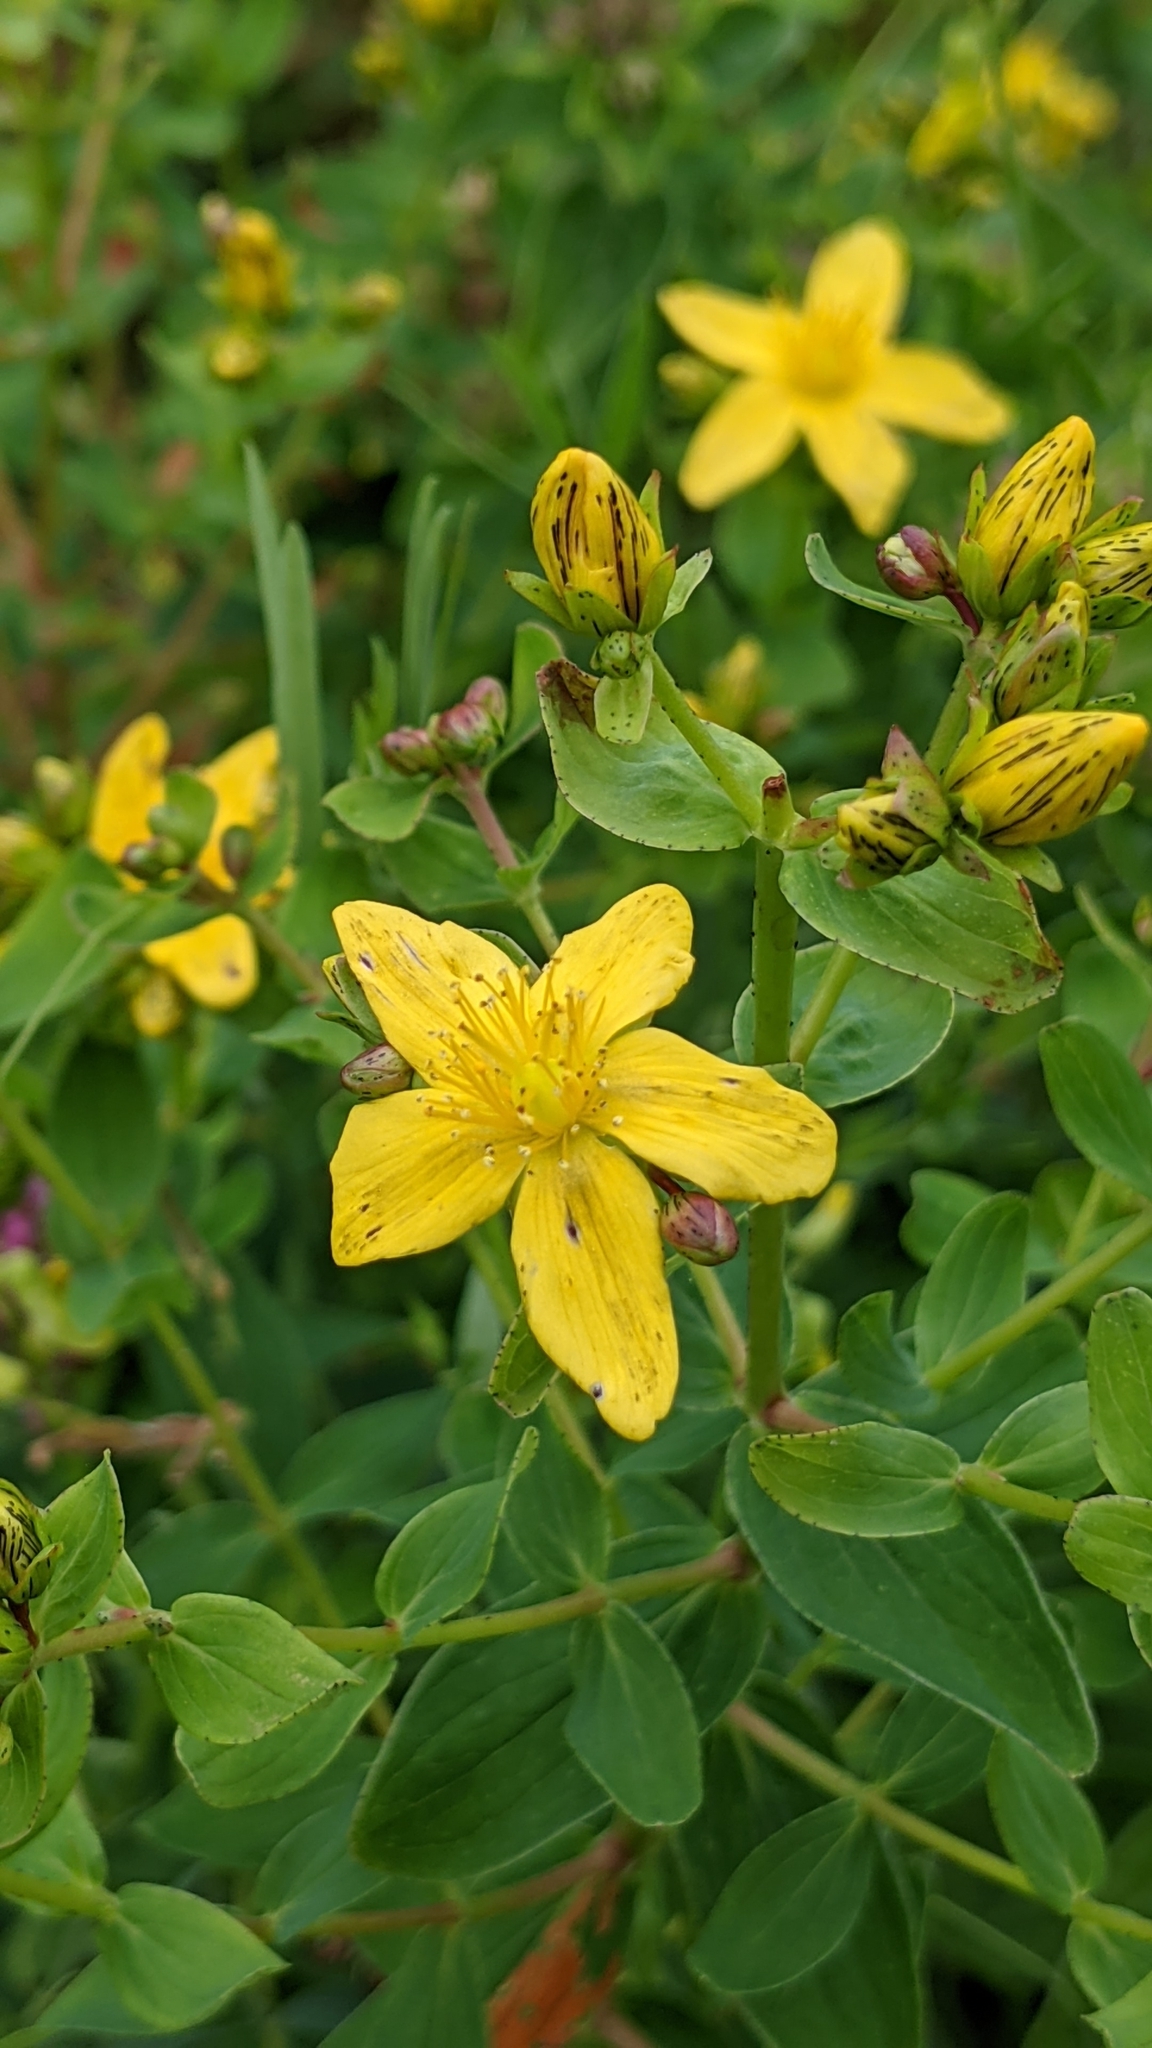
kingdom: Plantae
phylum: Tracheophyta
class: Magnoliopsida
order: Malpighiales
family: Hypericaceae
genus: Hypericum
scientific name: Hypericum perforatum
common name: Common st. johnswort
